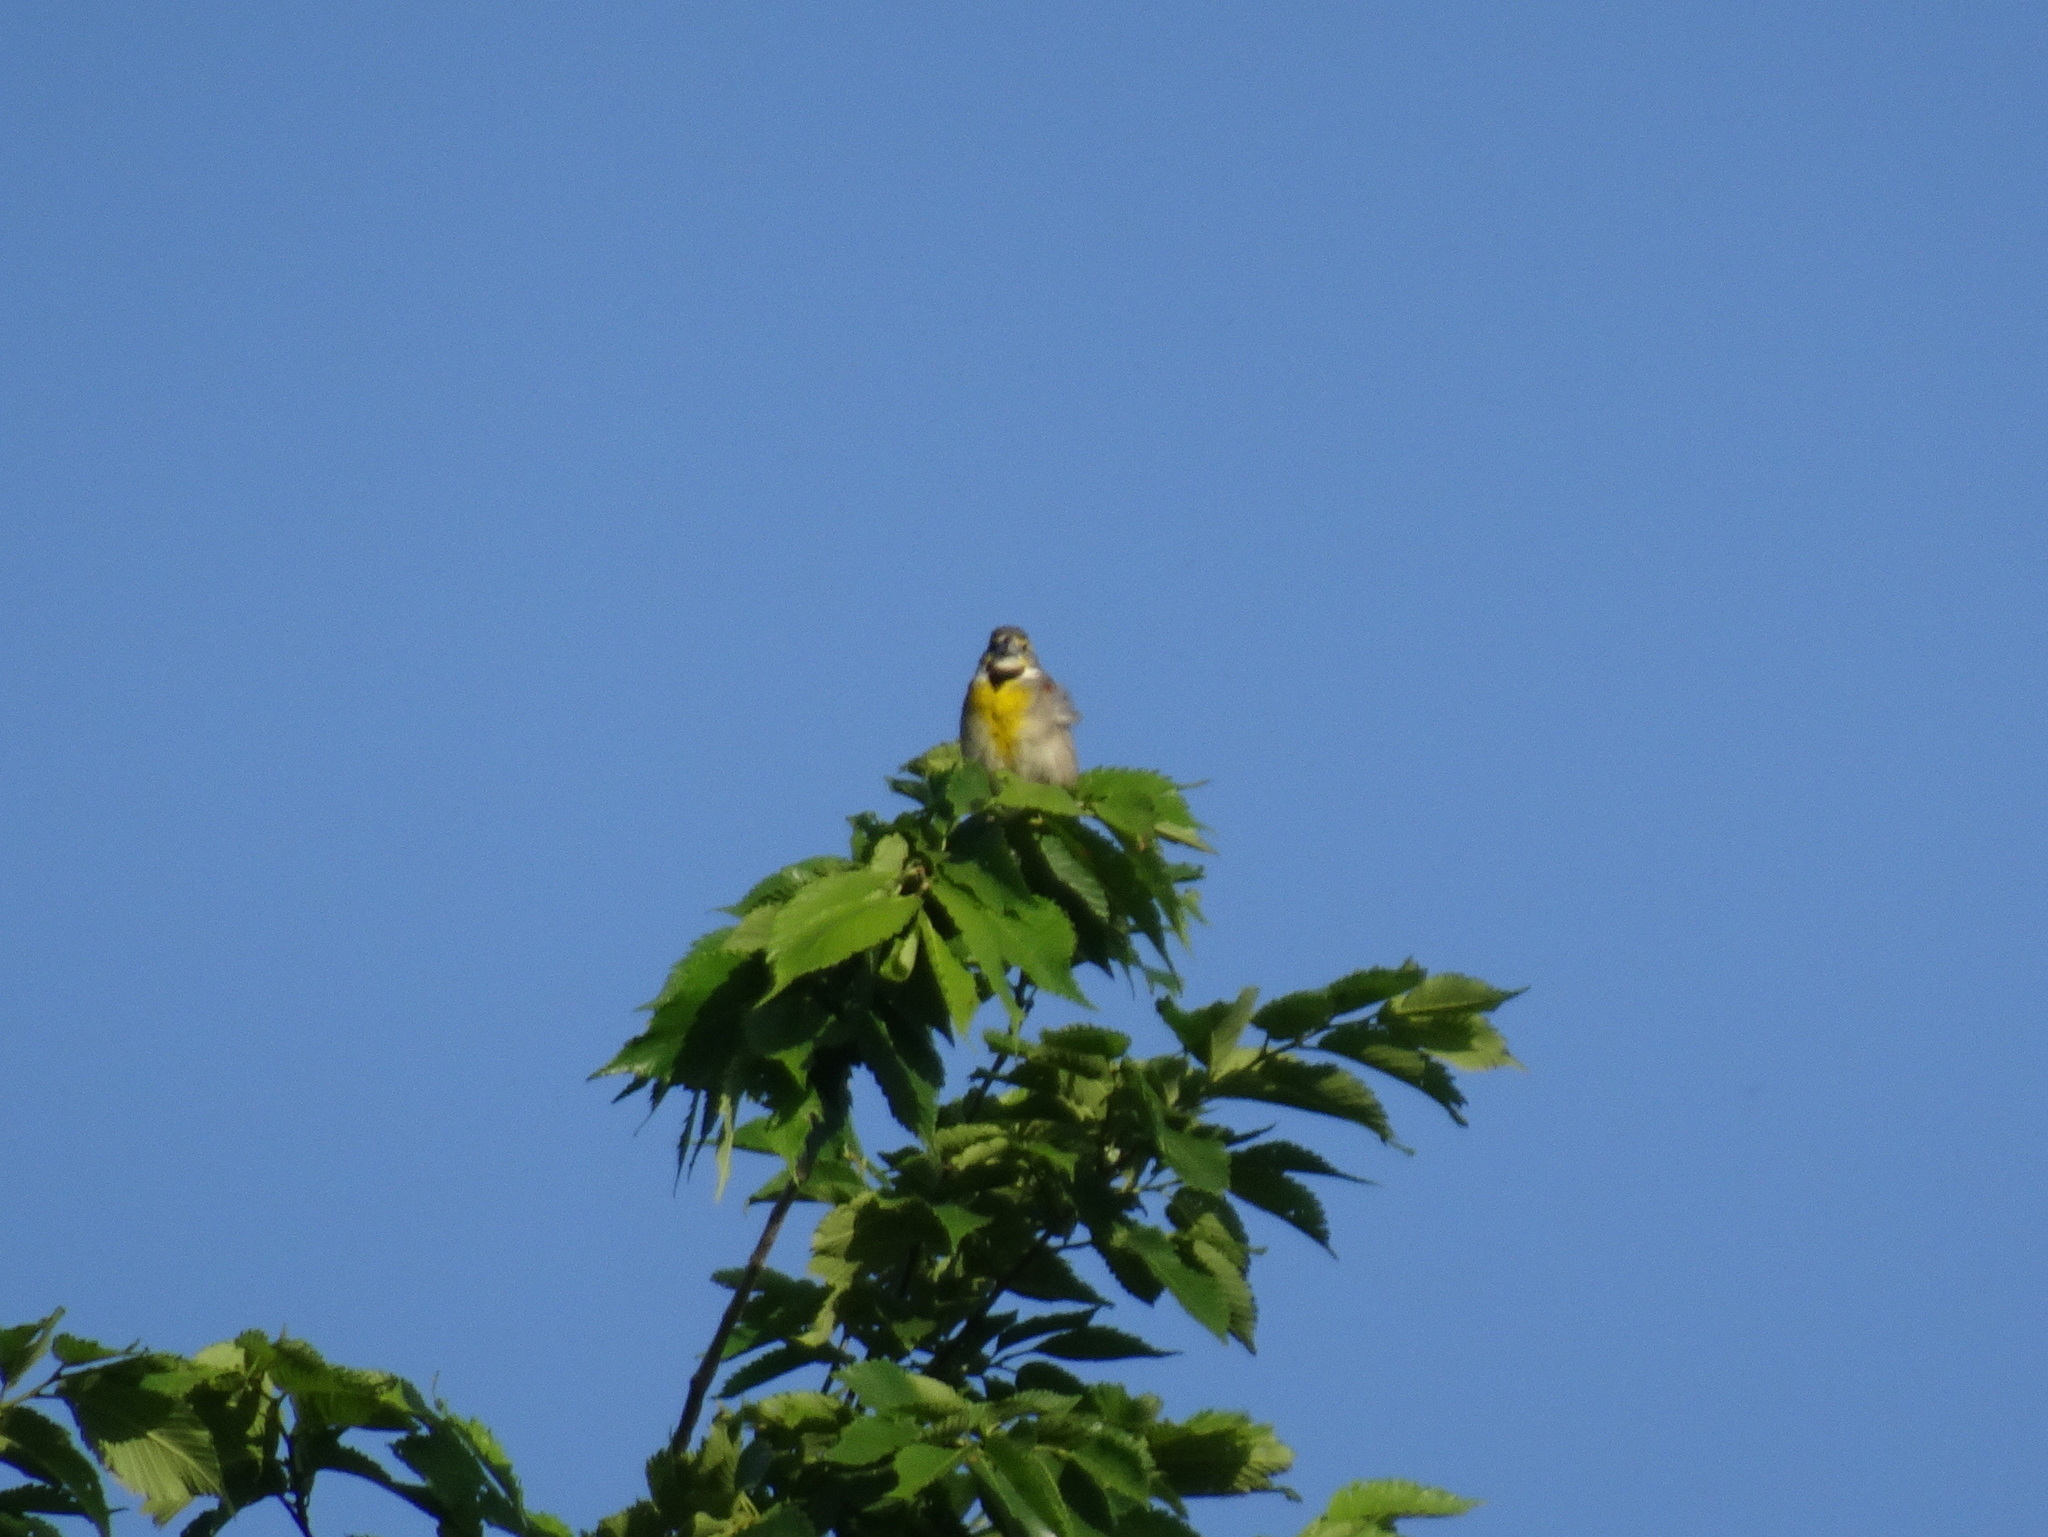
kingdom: Animalia
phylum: Chordata
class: Aves
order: Passeriformes
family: Cardinalidae
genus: Spiza
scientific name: Spiza americana
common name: Dickcissel
